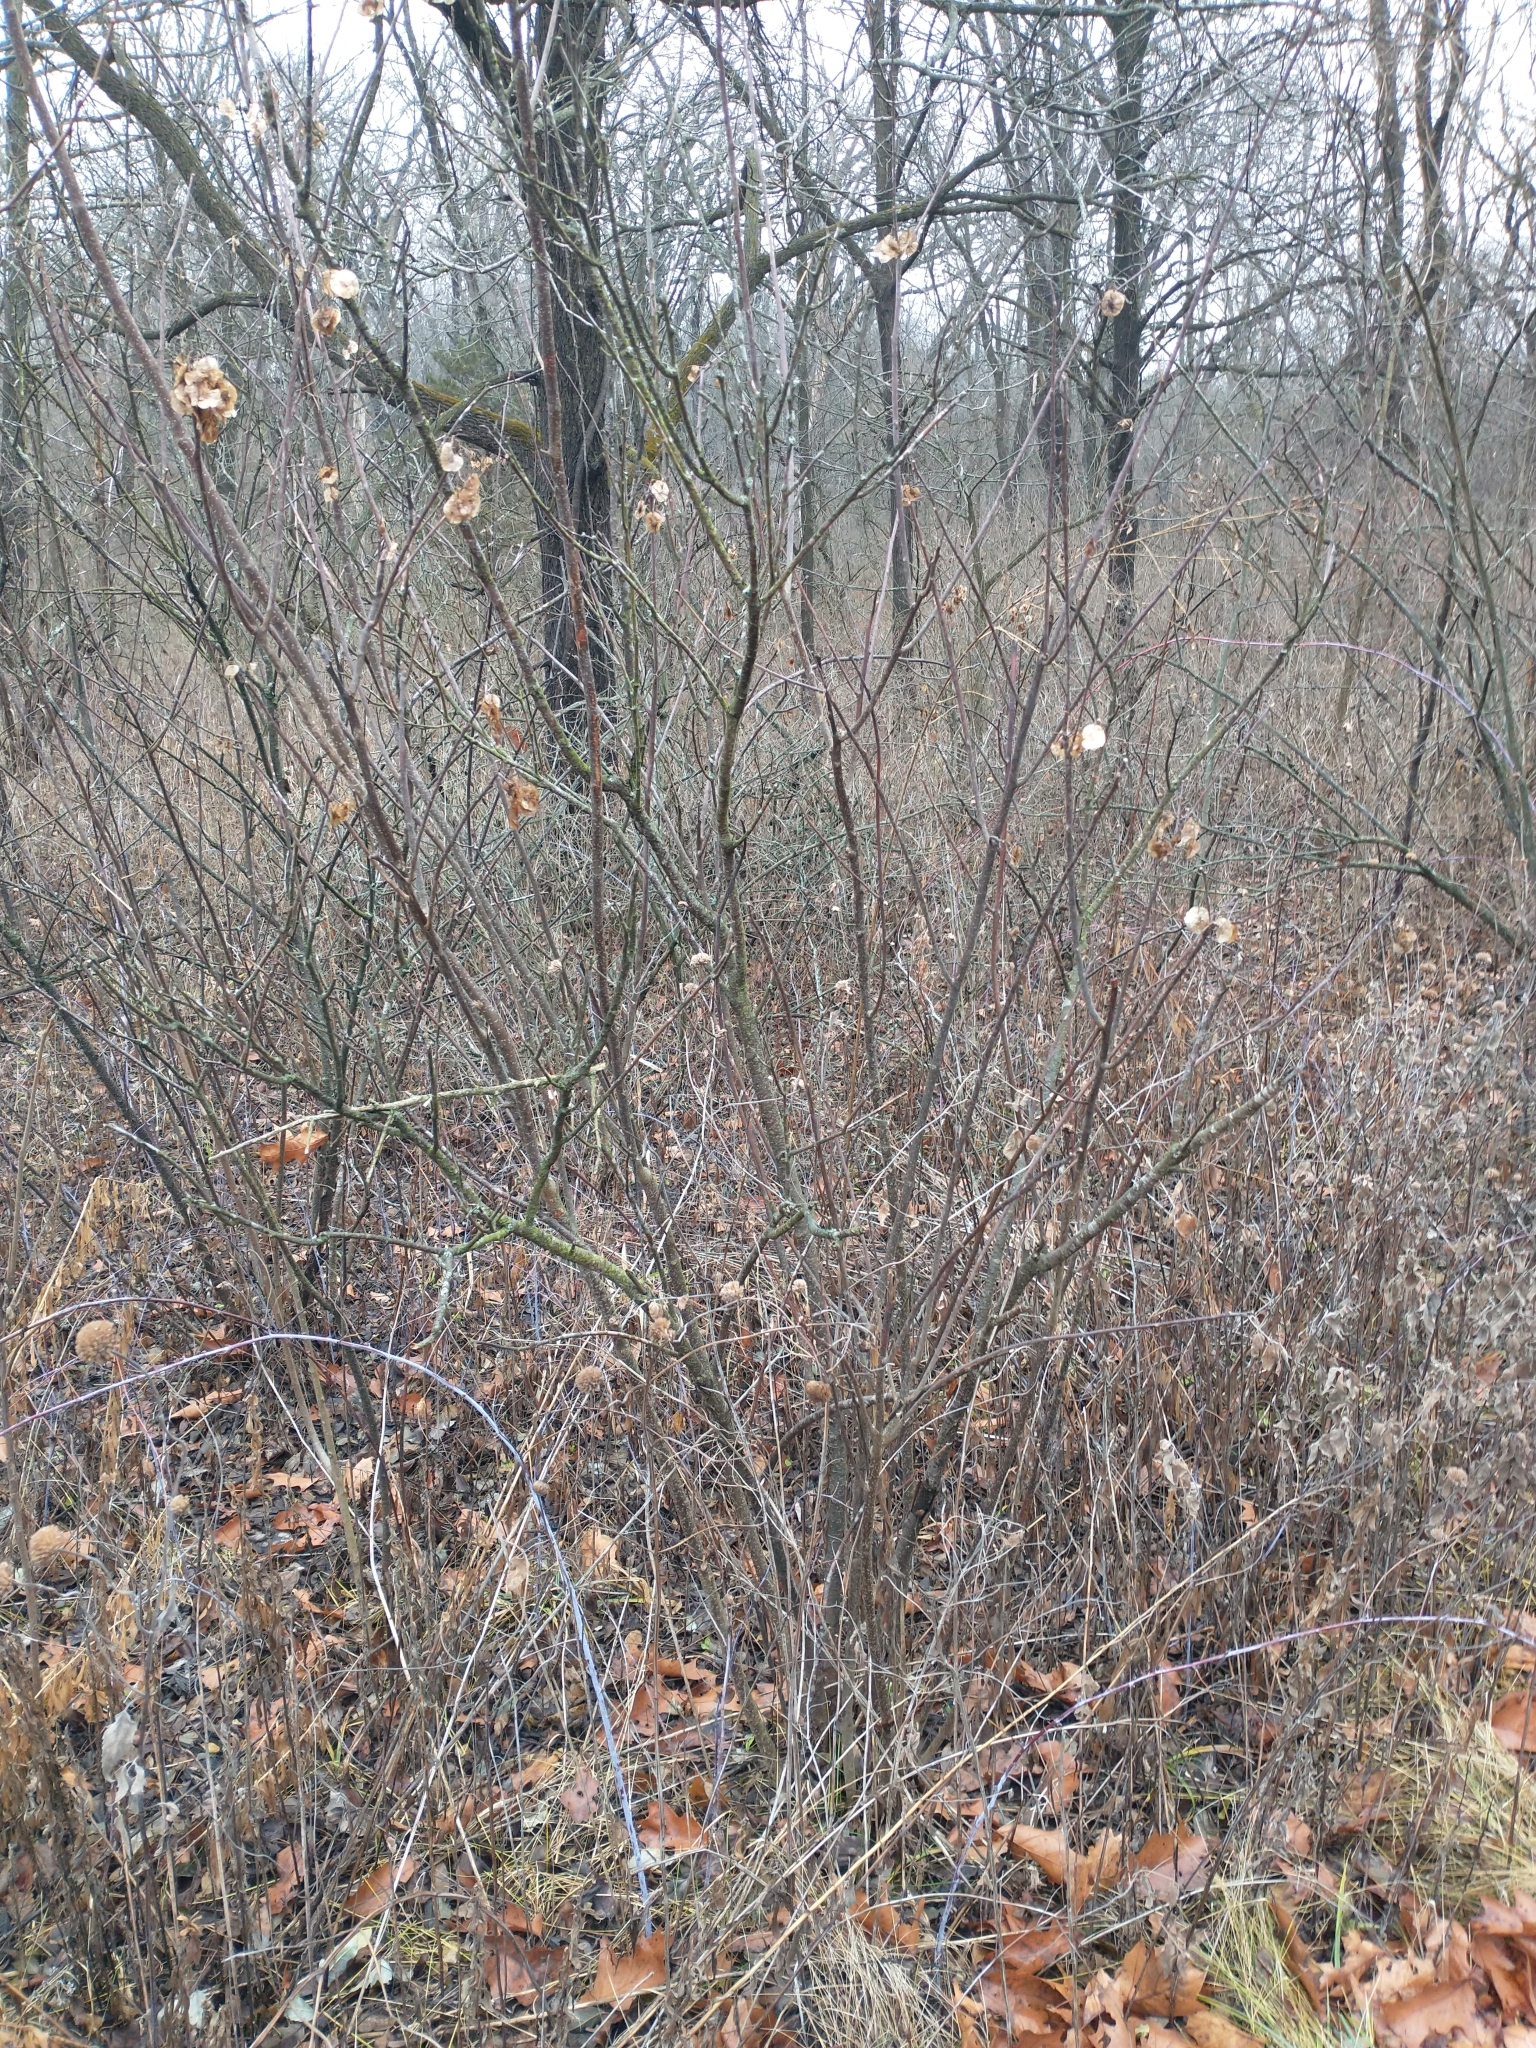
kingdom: Plantae
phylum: Tracheophyta
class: Magnoliopsida
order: Sapindales
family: Rutaceae
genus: Ptelea
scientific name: Ptelea trifoliata
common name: Common hop-tree
